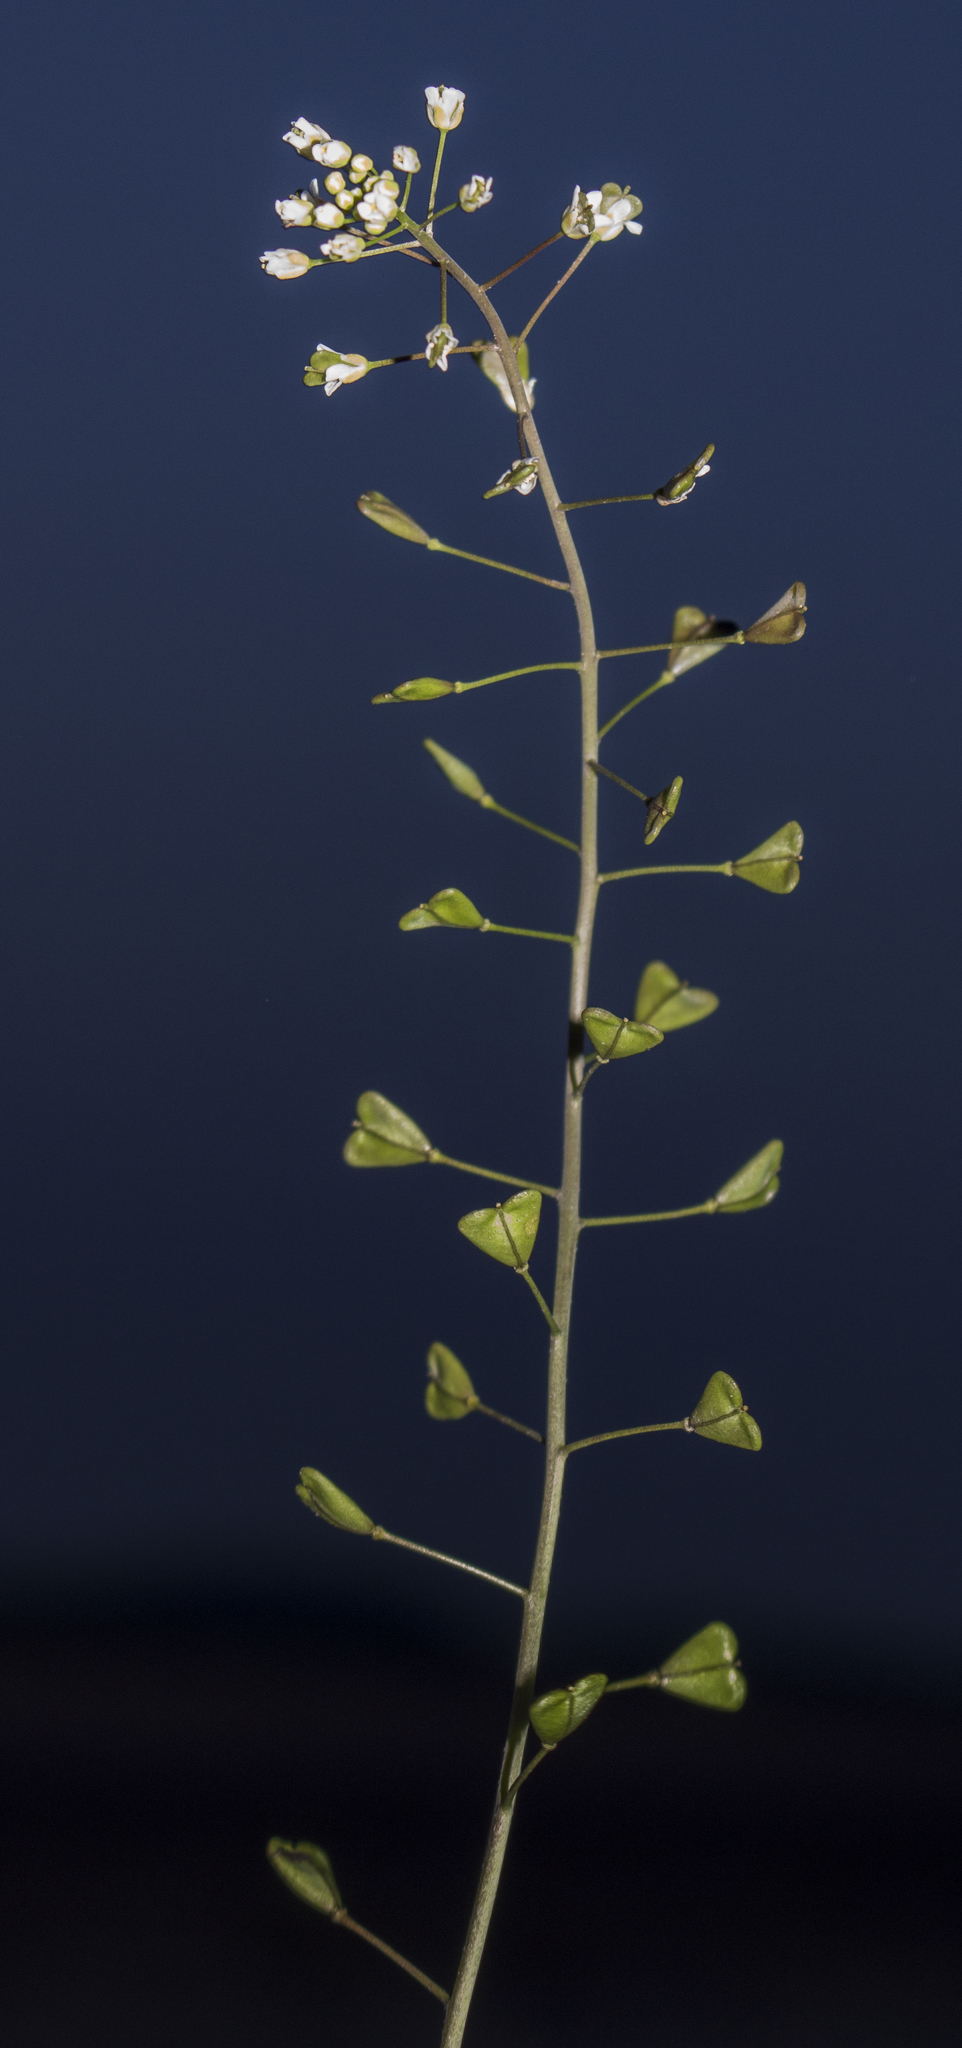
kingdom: Plantae
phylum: Tracheophyta
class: Magnoliopsida
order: Brassicales
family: Brassicaceae
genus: Capsella
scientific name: Capsella bursa-pastoris
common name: Shepherd's purse
